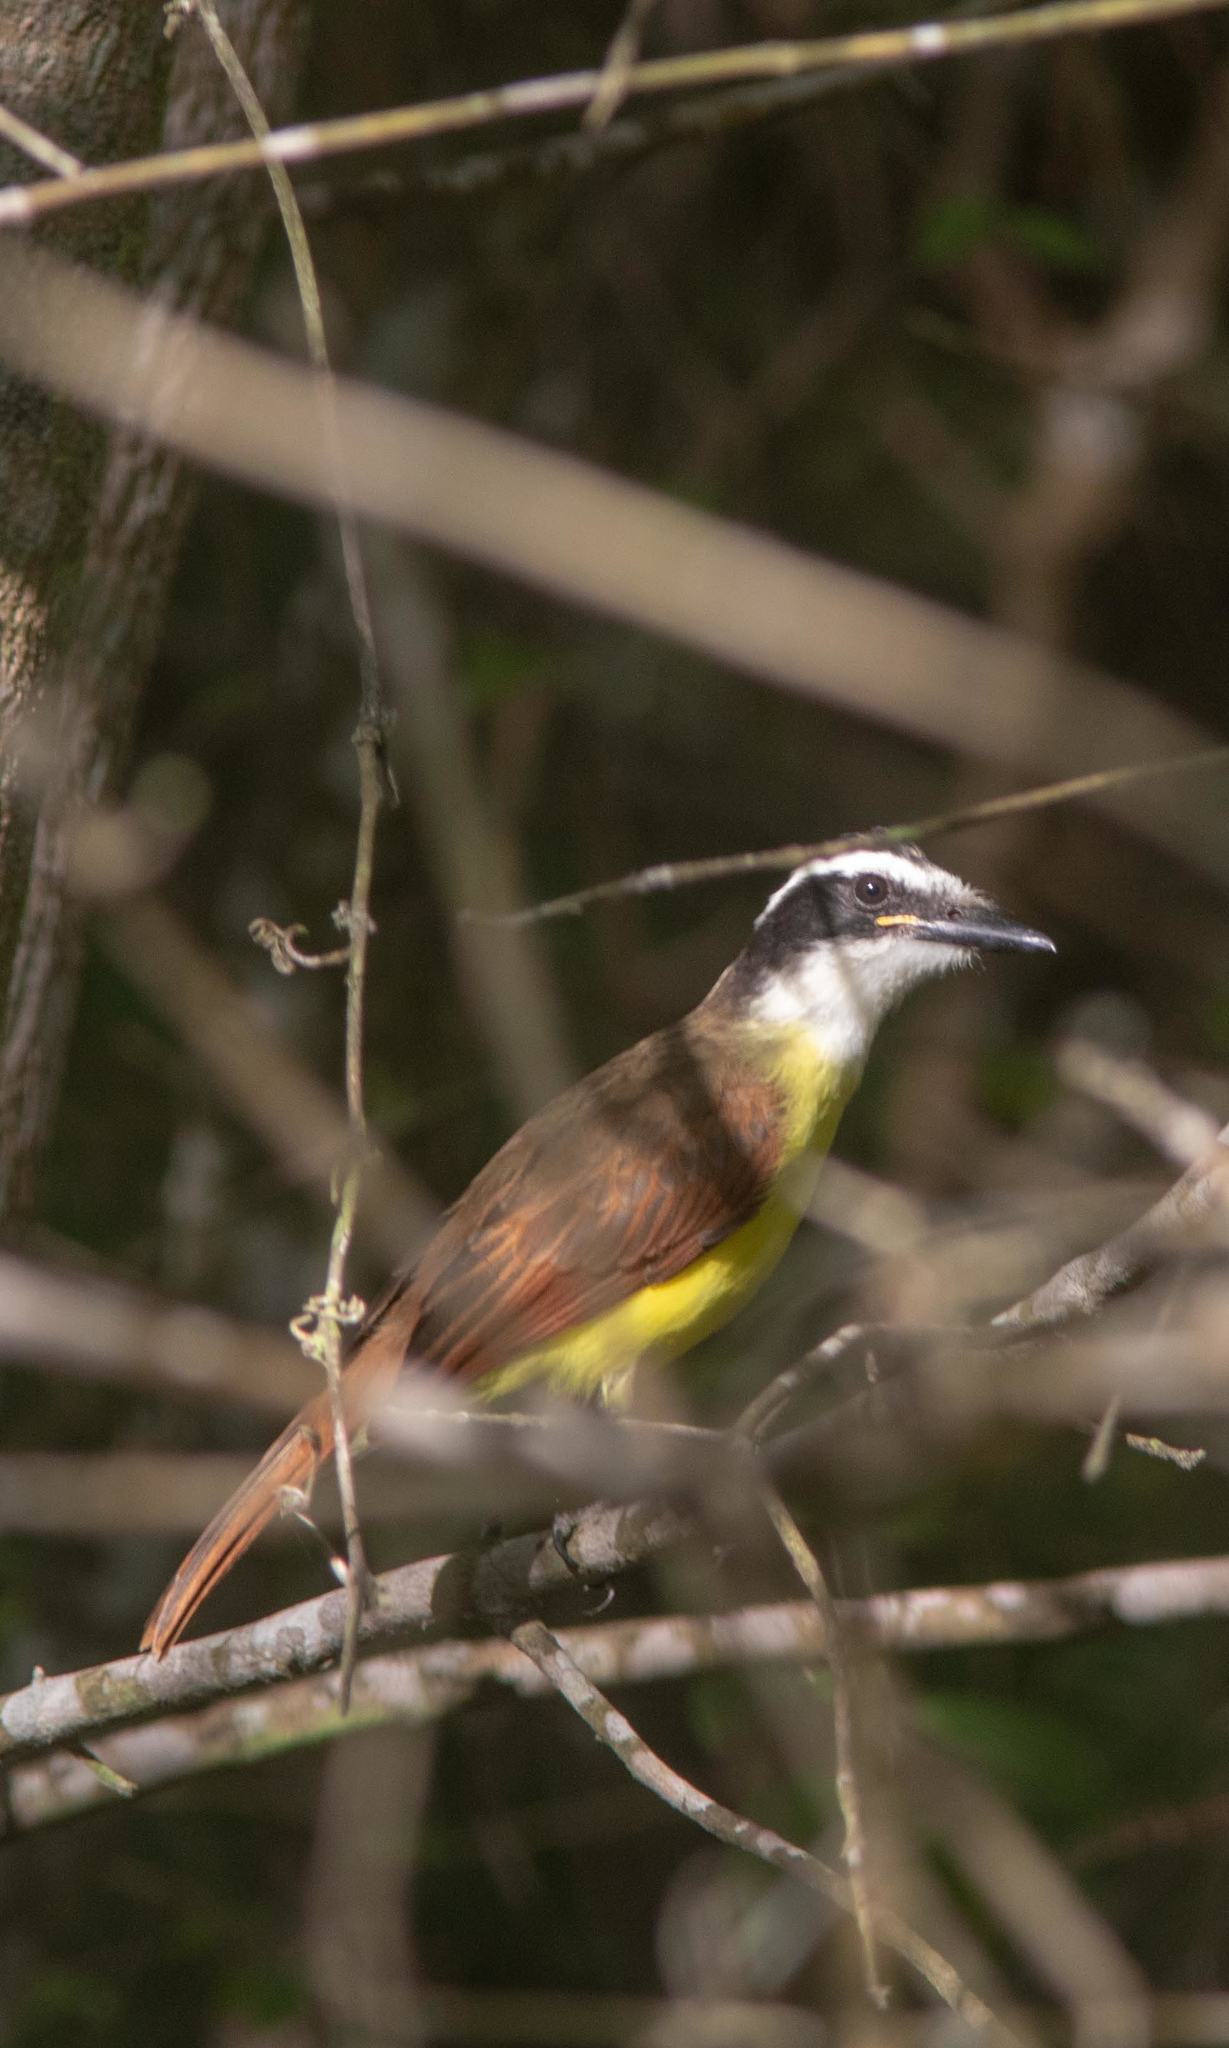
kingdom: Animalia
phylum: Chordata
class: Aves
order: Passeriformes
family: Tyrannidae
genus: Pitangus
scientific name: Pitangus sulphuratus
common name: Great kiskadee
